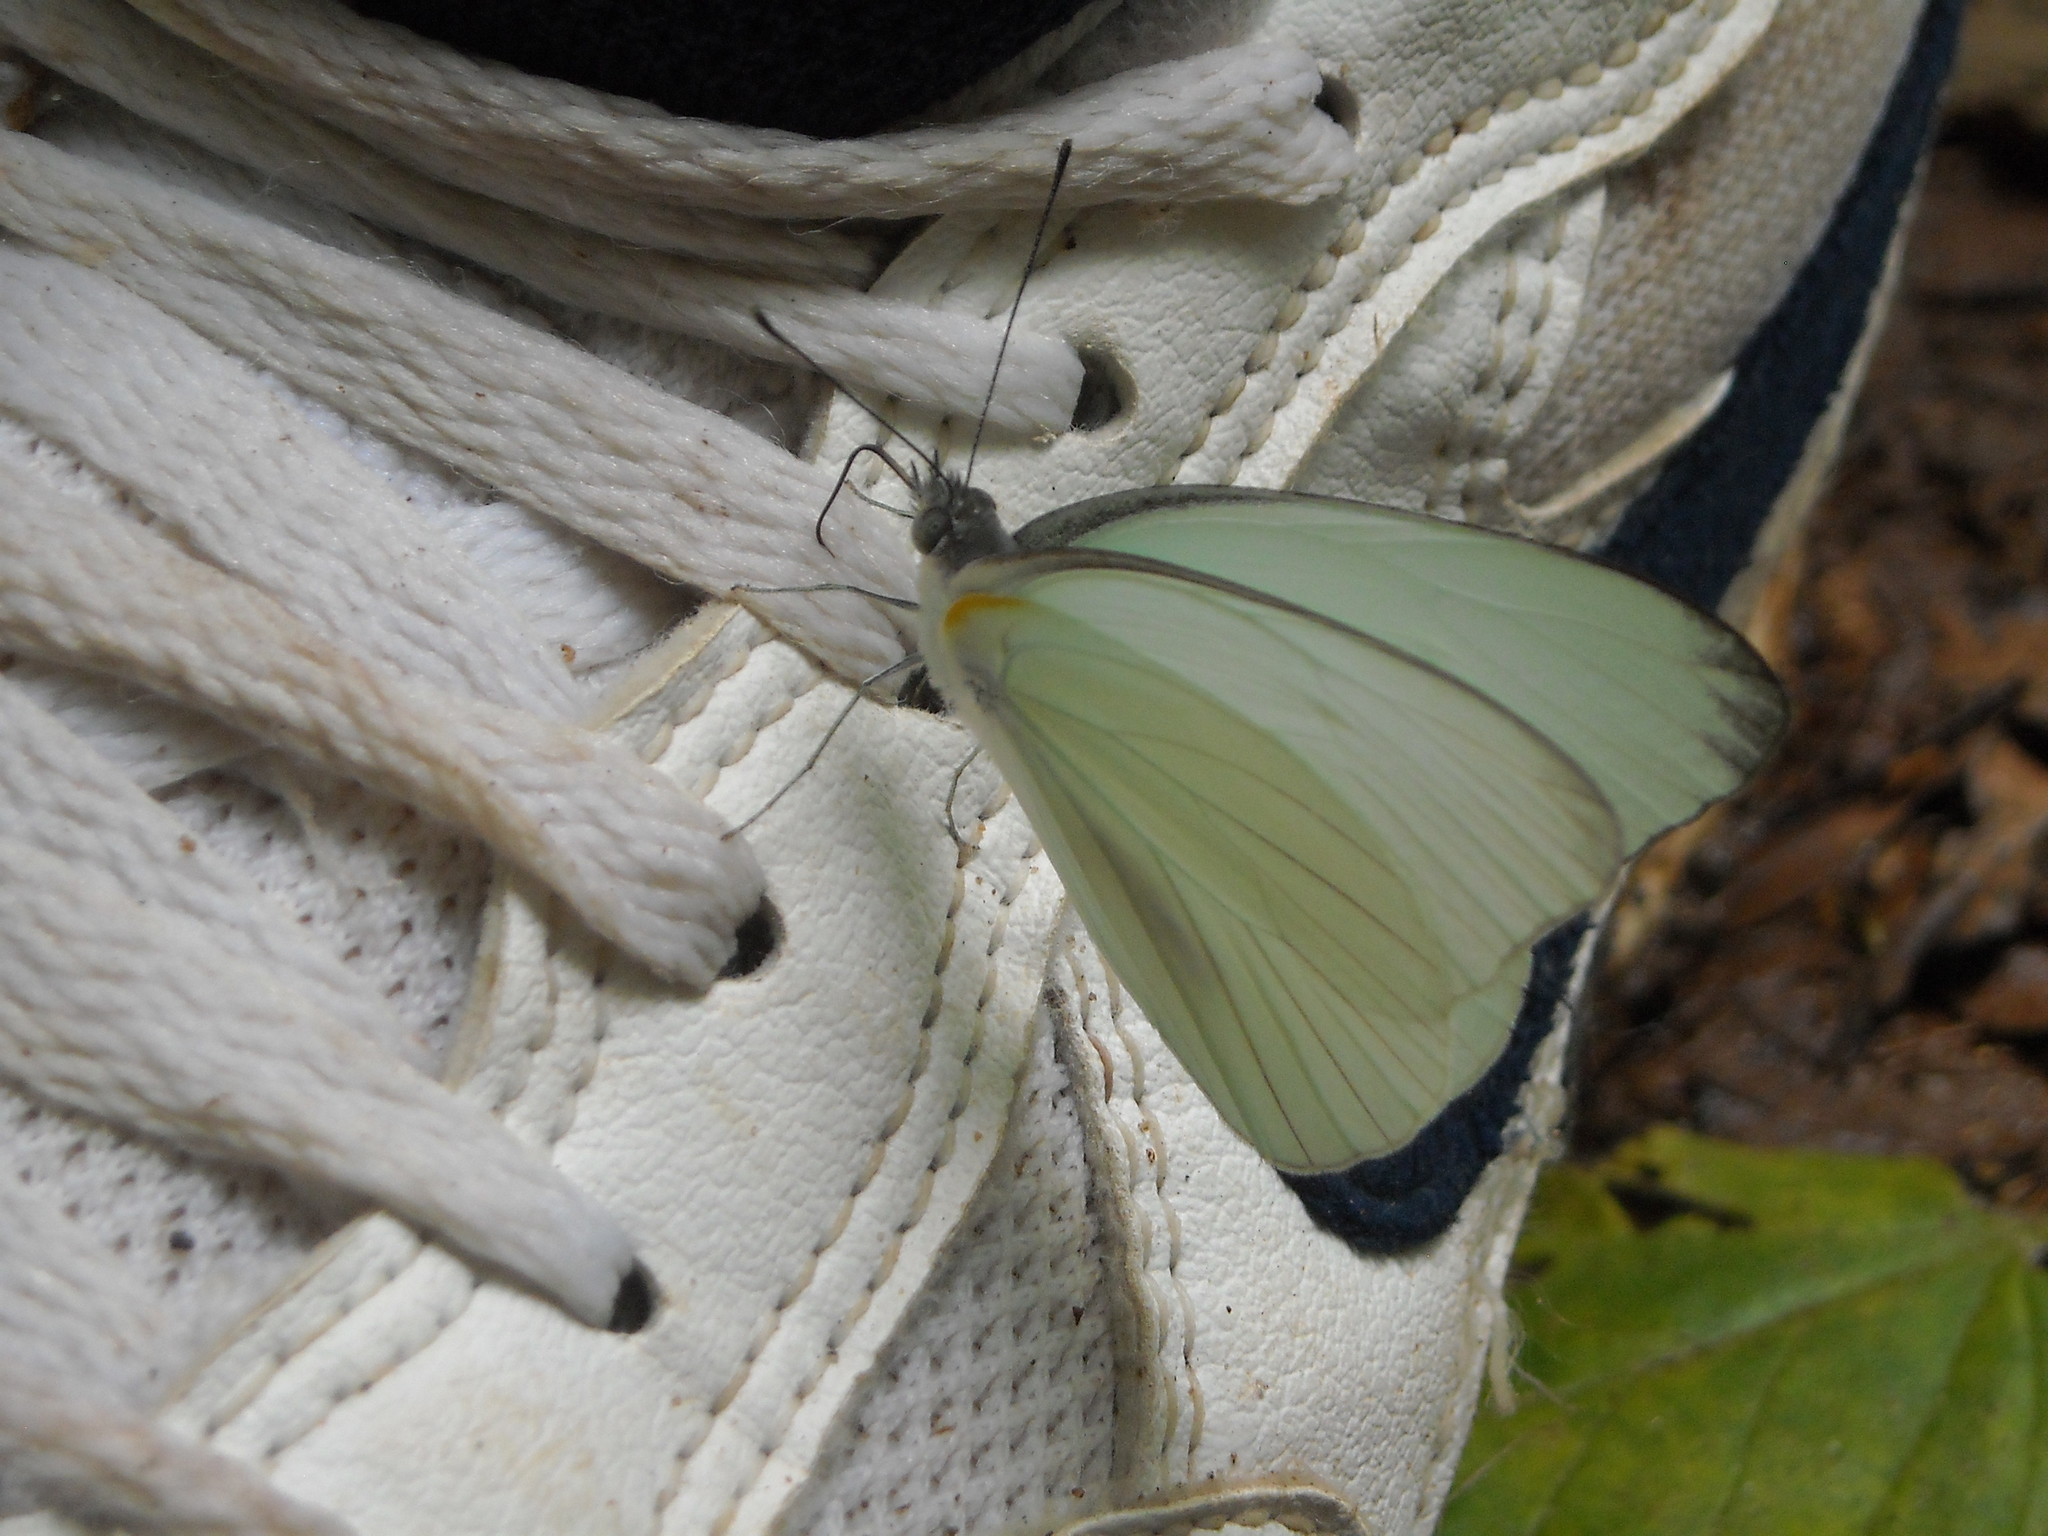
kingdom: Animalia
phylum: Arthropoda
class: Insecta
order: Lepidoptera
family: Pieridae
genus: Glutophrissa
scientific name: Glutophrissa drusilla
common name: Florida white
